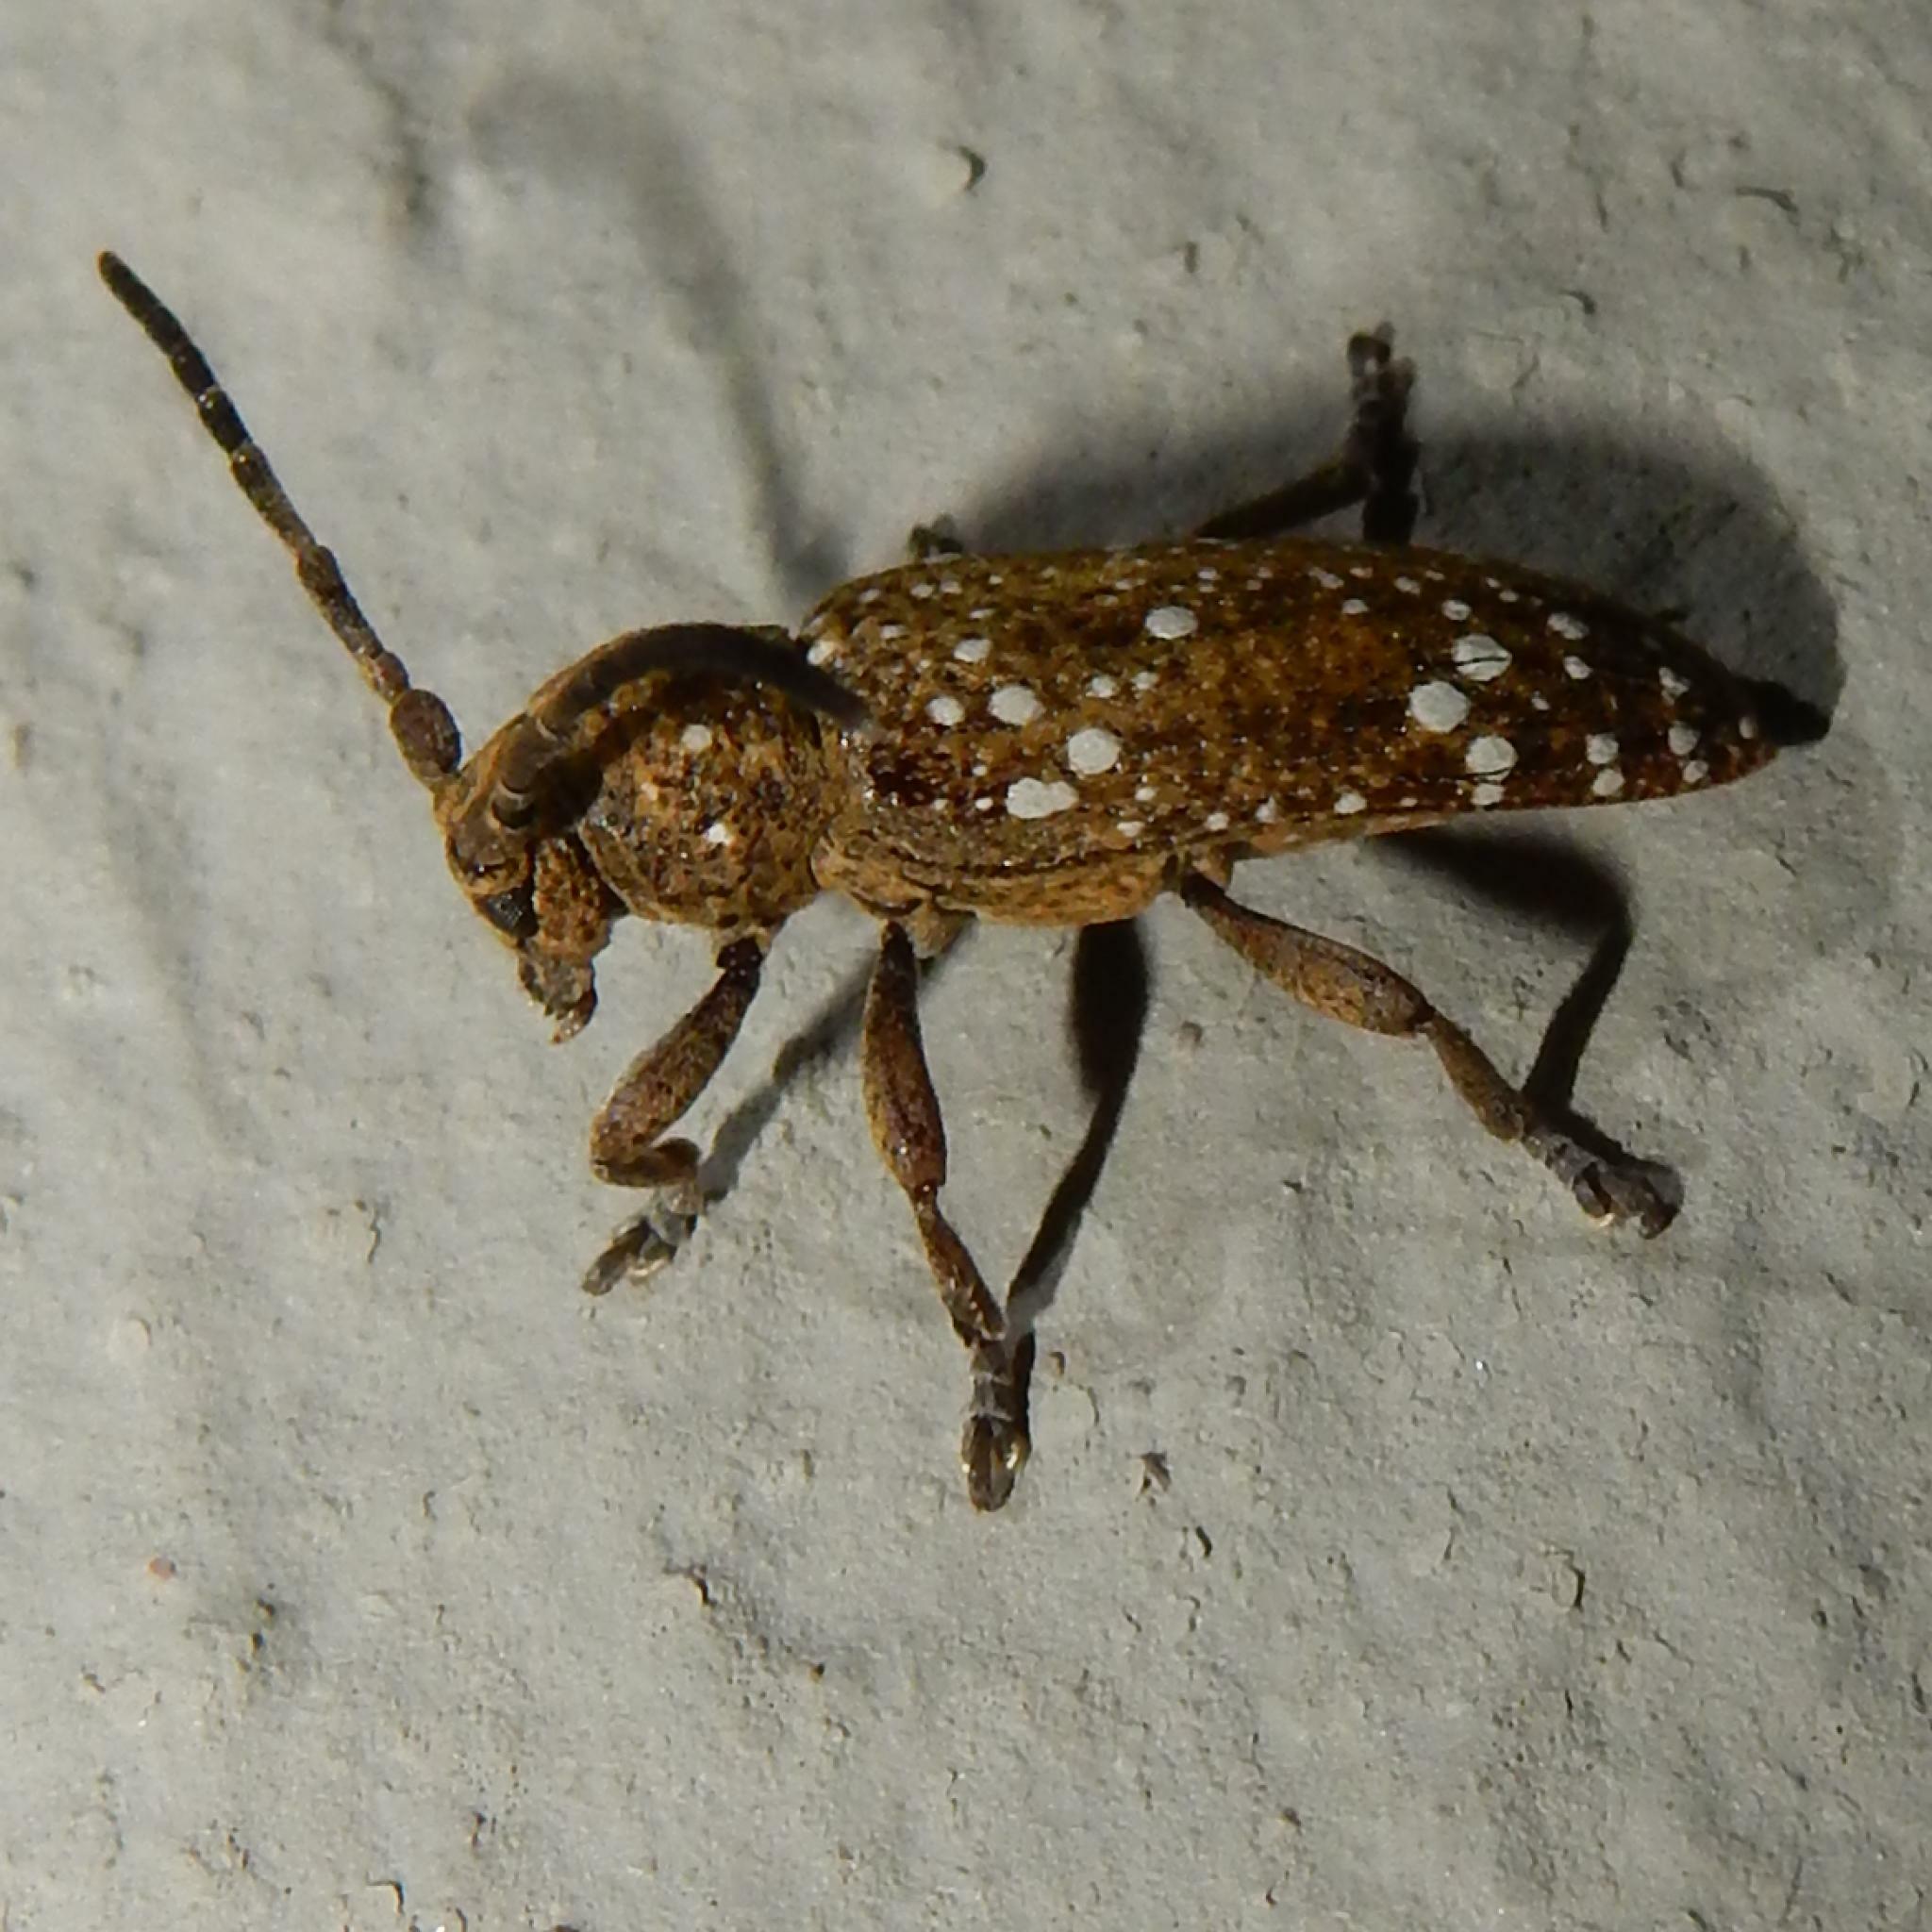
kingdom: Animalia
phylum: Arthropoda
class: Insecta
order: Coleoptera
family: Cerambycidae
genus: Apomecyna
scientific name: Apomecyna quadristicta
